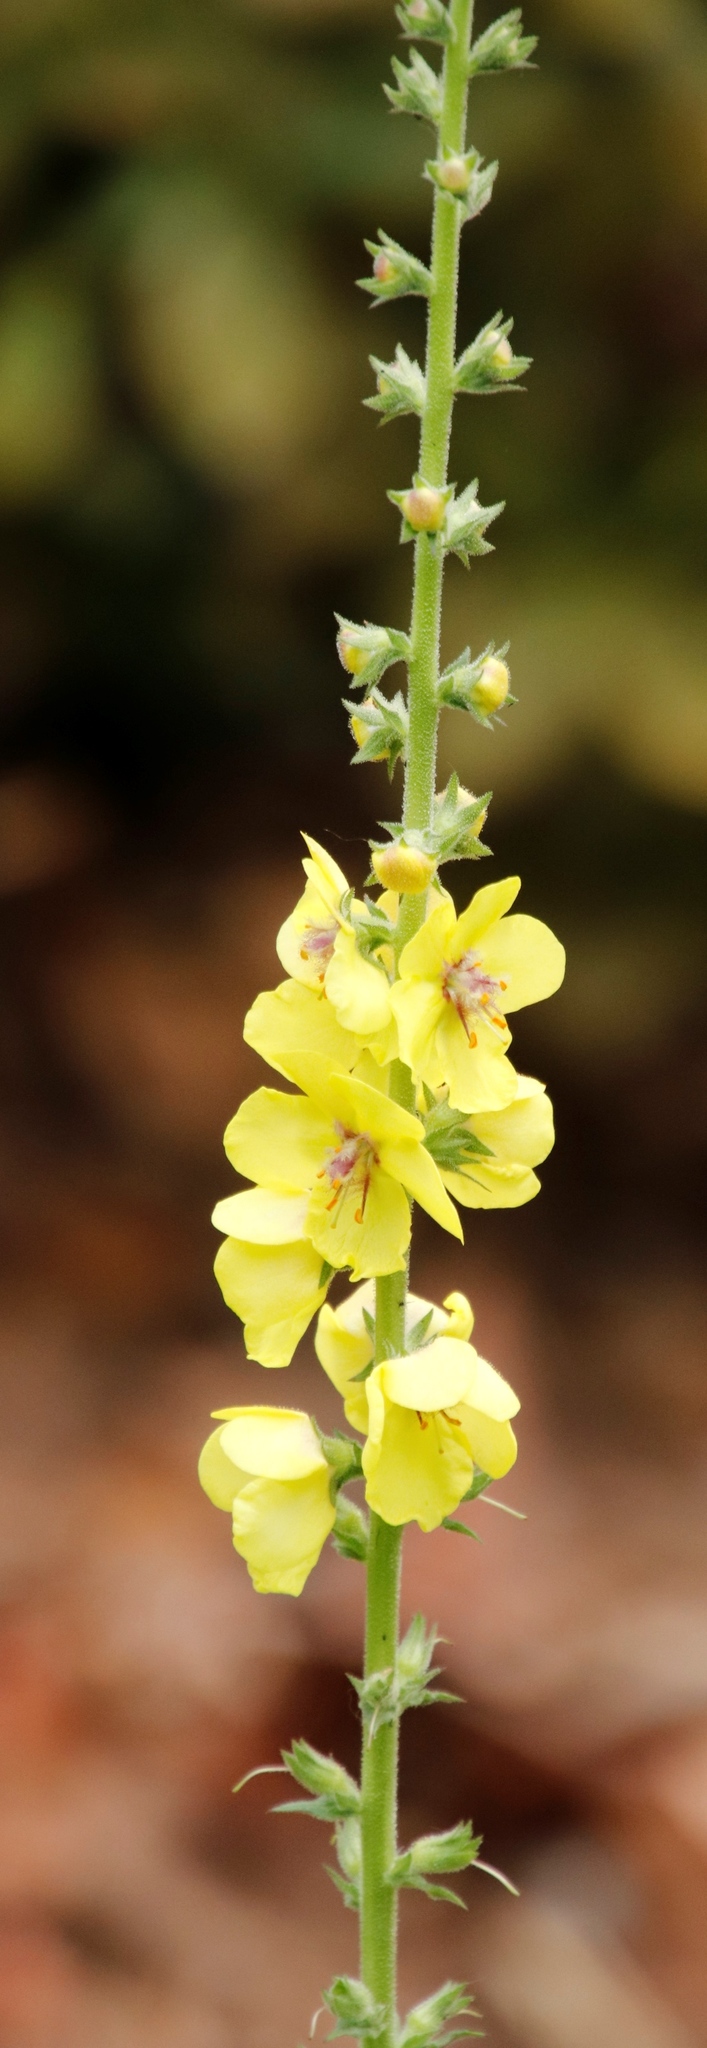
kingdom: Plantae
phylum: Tracheophyta
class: Magnoliopsida
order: Lamiales
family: Scrophulariaceae
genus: Verbascum
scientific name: Verbascum virgatum
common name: Twiggy mullein
